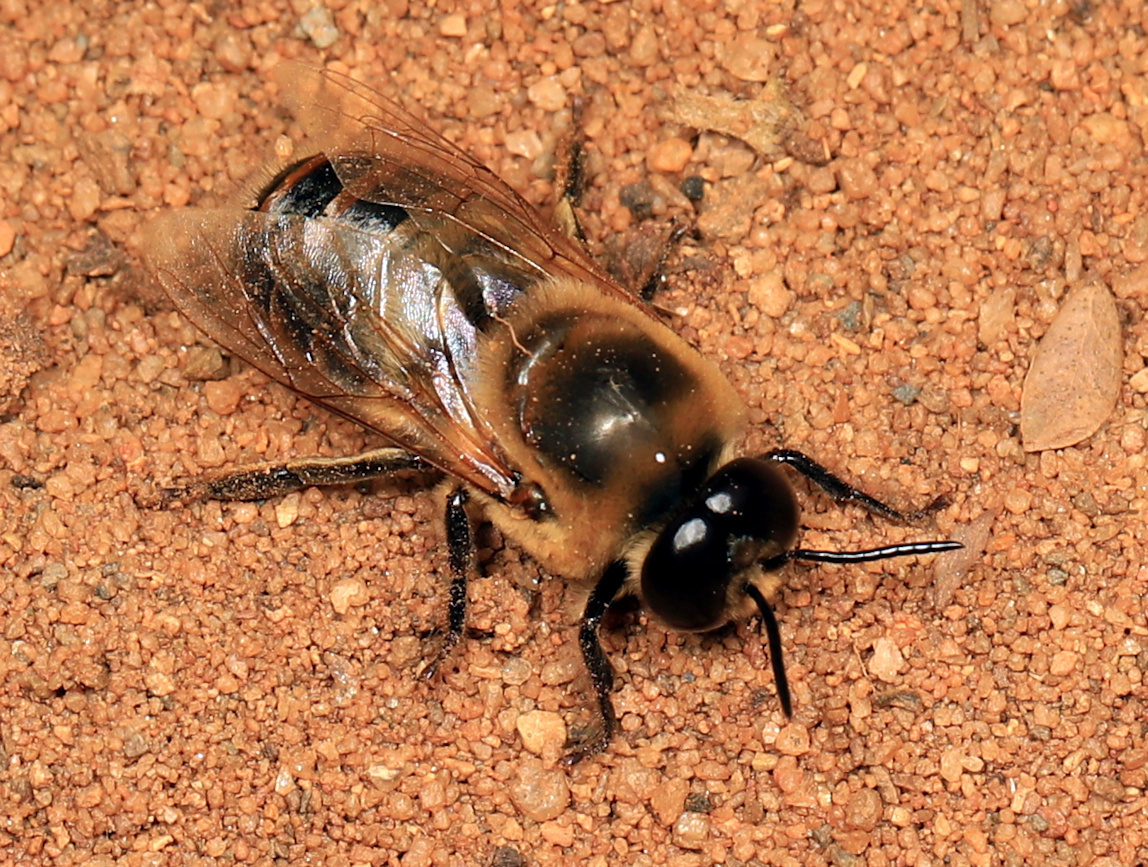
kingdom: Animalia
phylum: Arthropoda
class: Insecta
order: Hymenoptera
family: Apidae
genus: Apis
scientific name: Apis mellifera
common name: Honey bee
